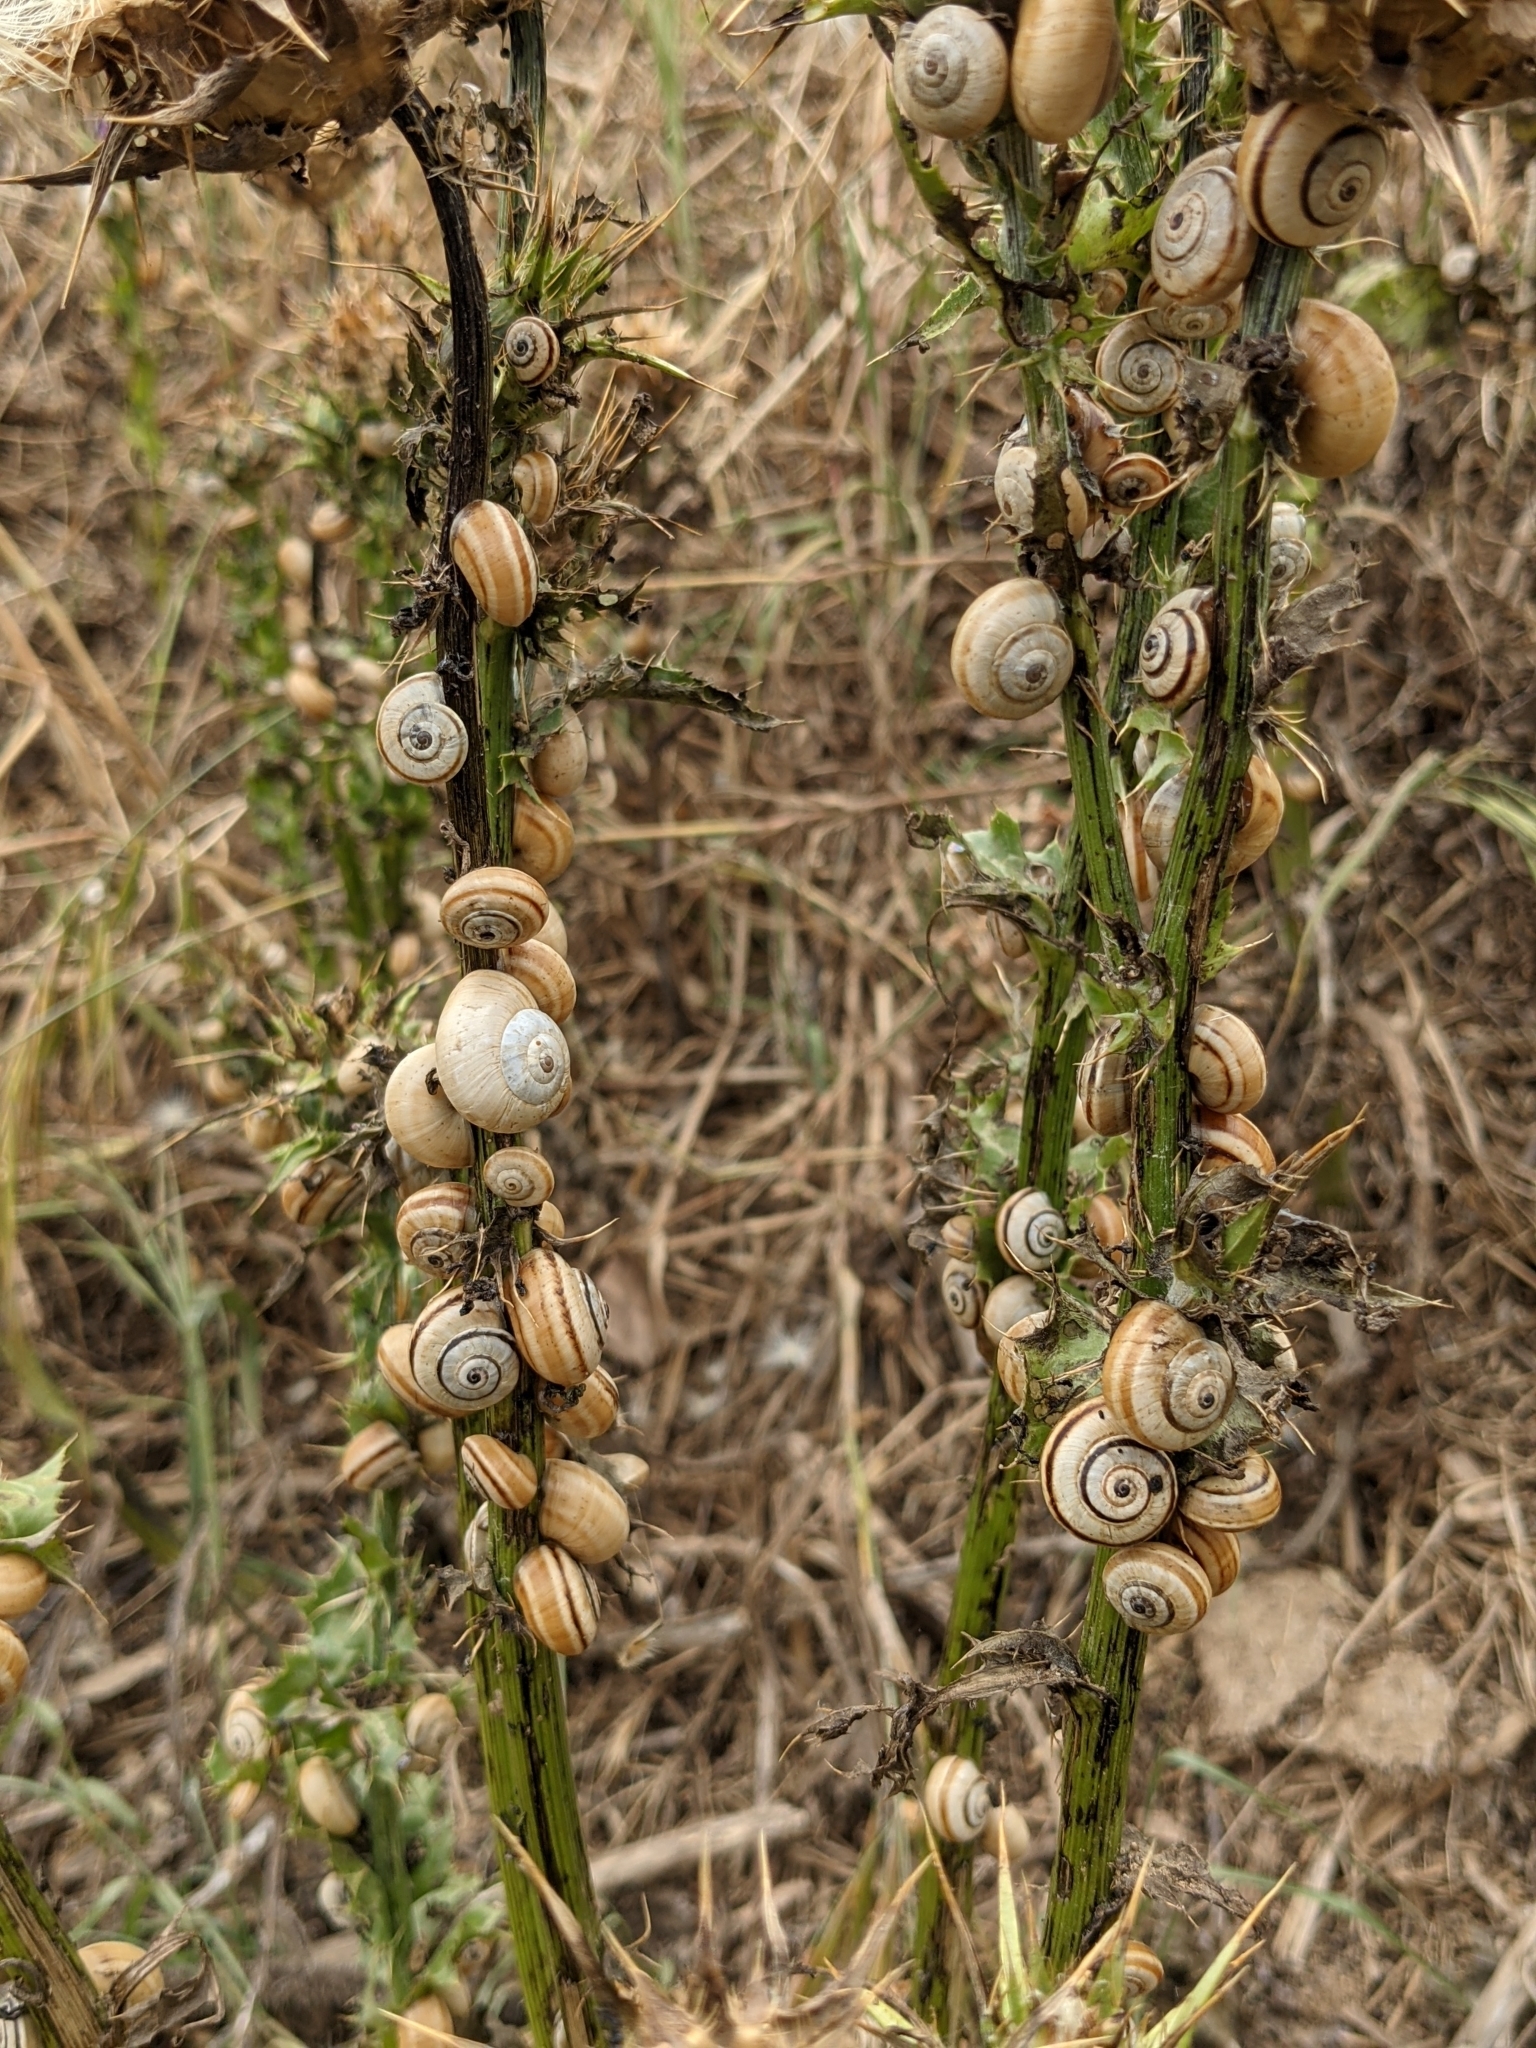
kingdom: Animalia
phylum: Mollusca
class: Gastropoda
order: Stylommatophora
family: Helicidae
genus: Theba
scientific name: Theba pisana
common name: White snail
